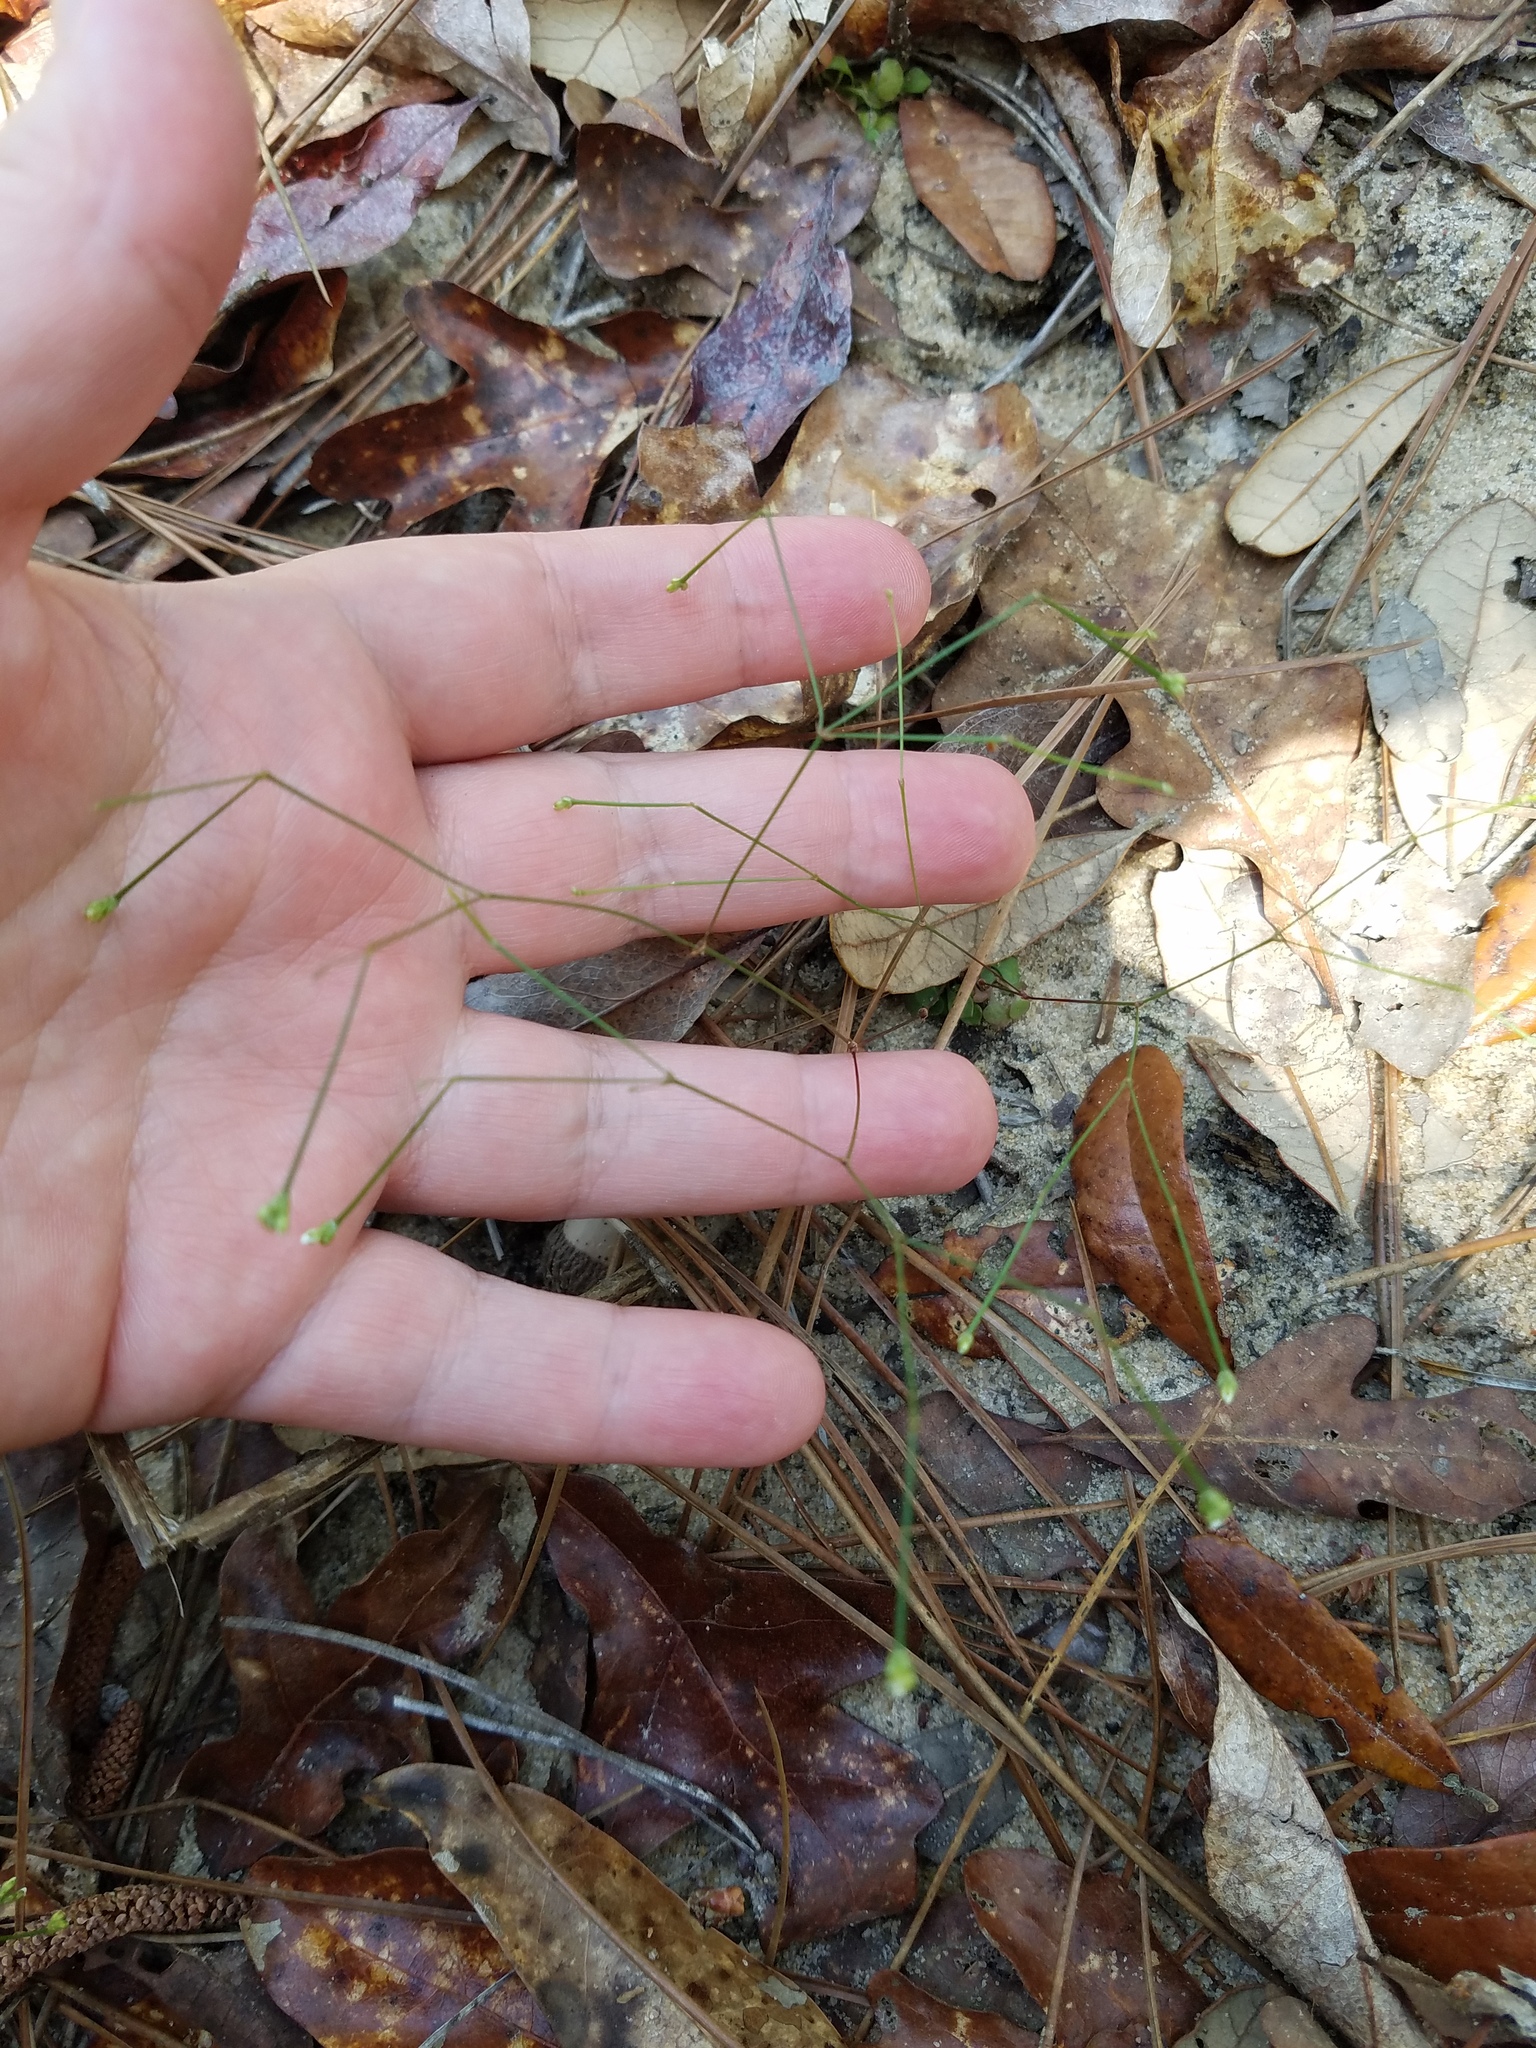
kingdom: Plantae
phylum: Tracheophyta
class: Magnoliopsida
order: Caryophyllales
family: Caryophyllaceae
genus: Stipulicida
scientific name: Stipulicida setacea
